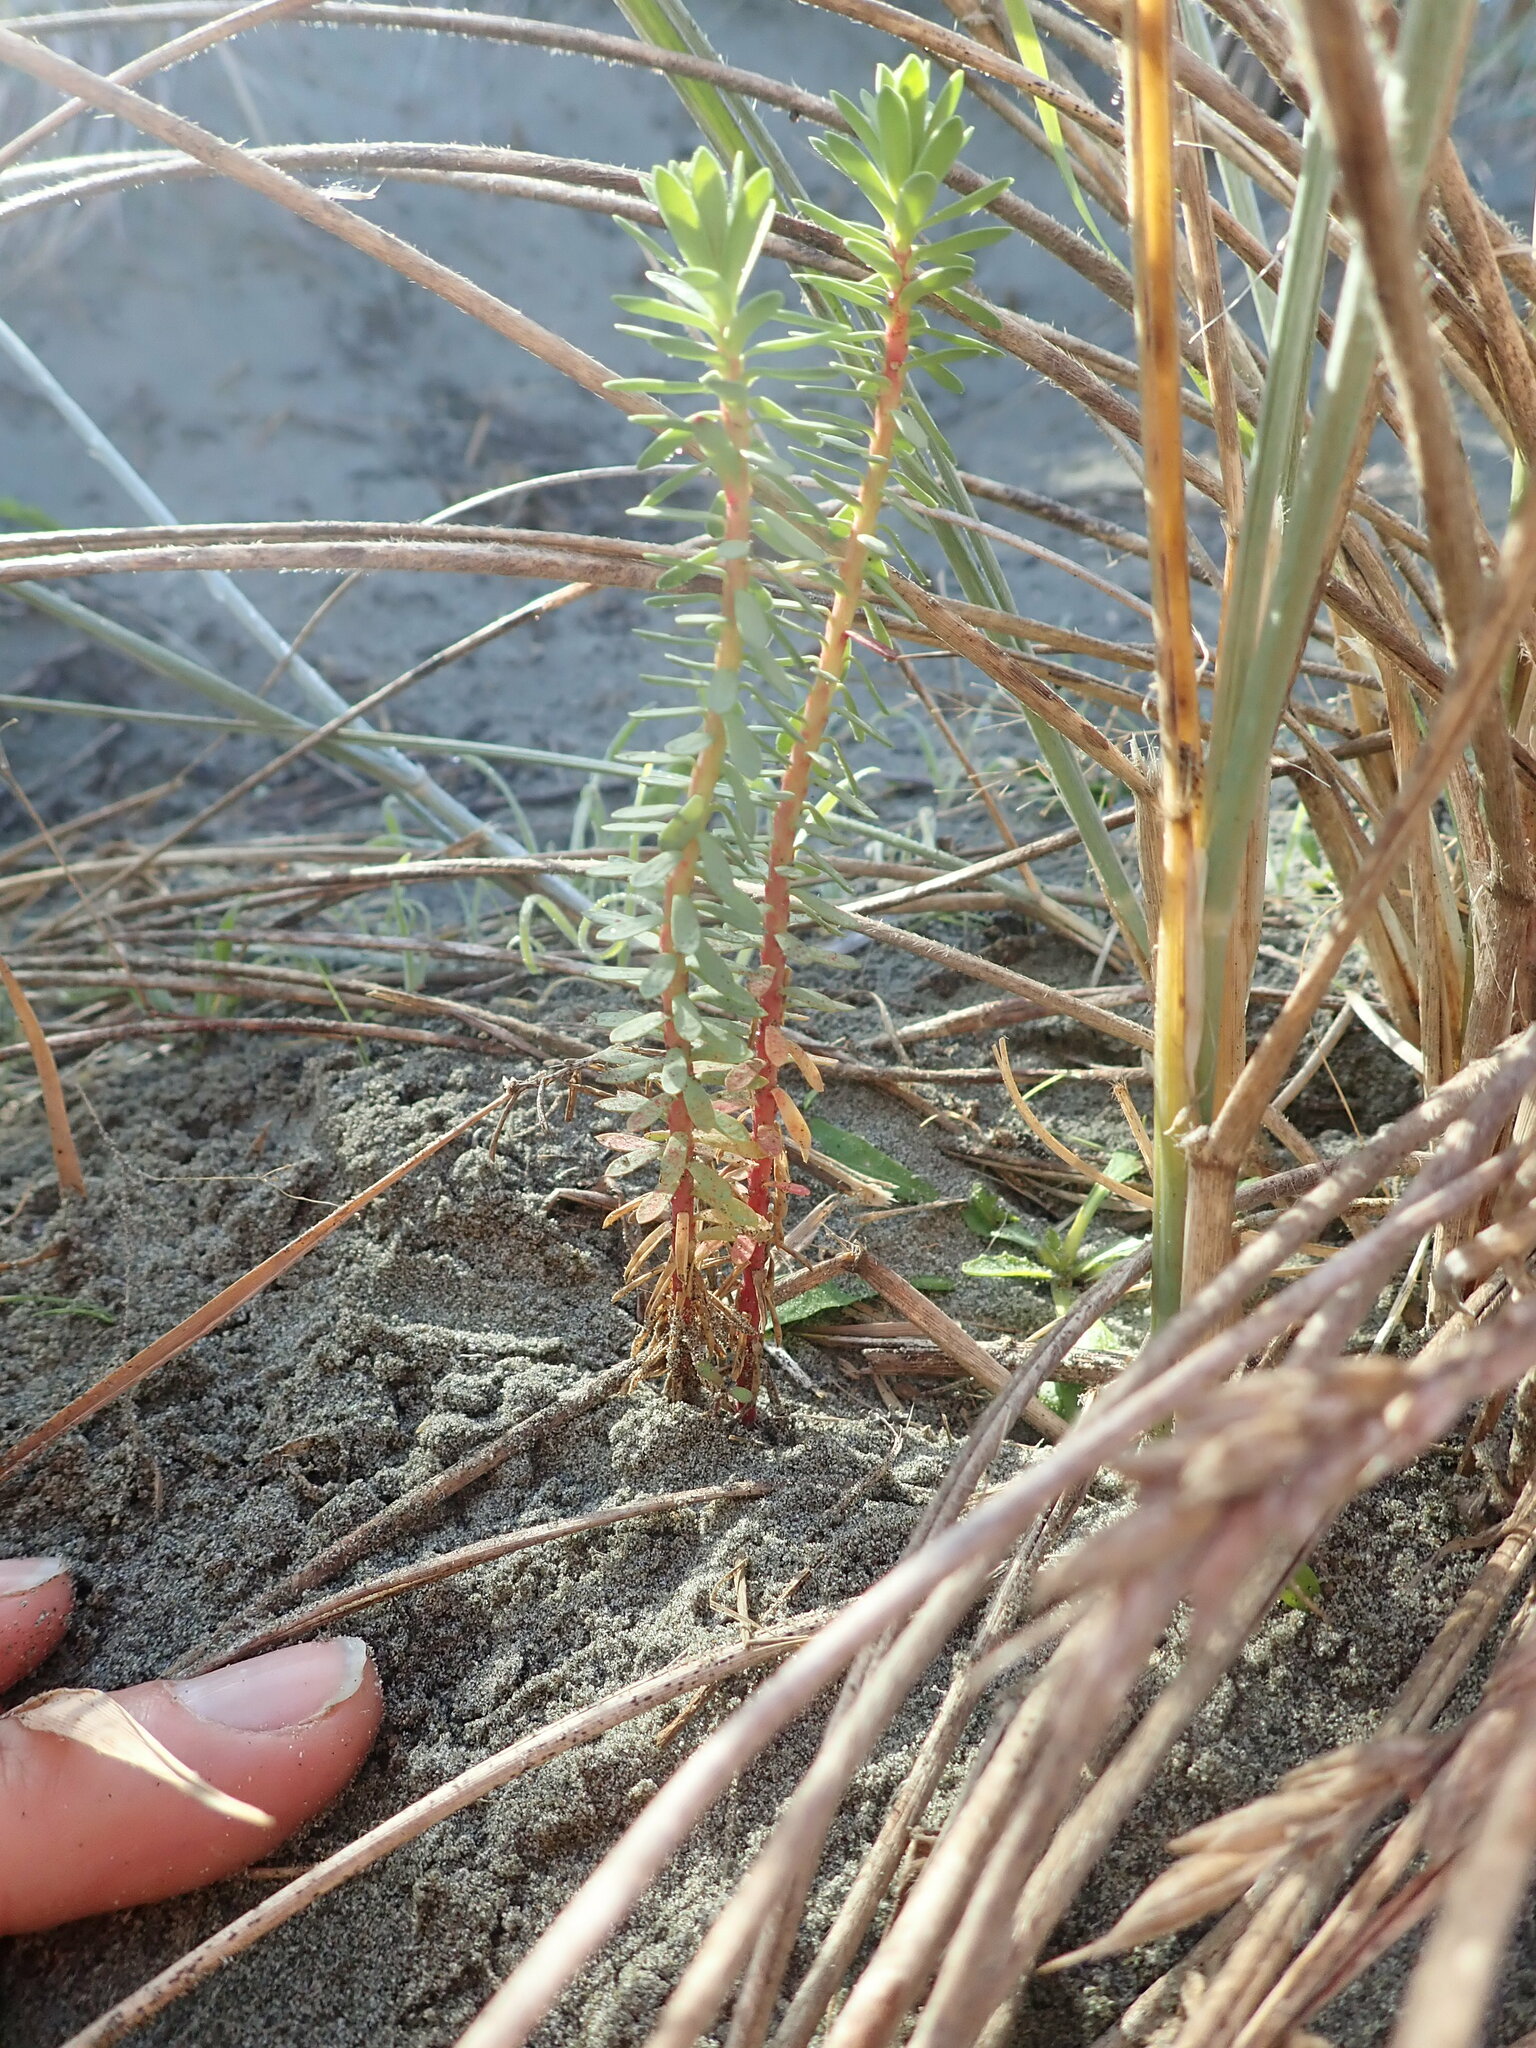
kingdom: Plantae
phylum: Tracheophyta
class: Magnoliopsida
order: Malpighiales
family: Euphorbiaceae
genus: Euphorbia
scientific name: Euphorbia paralias
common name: Sea spurge
